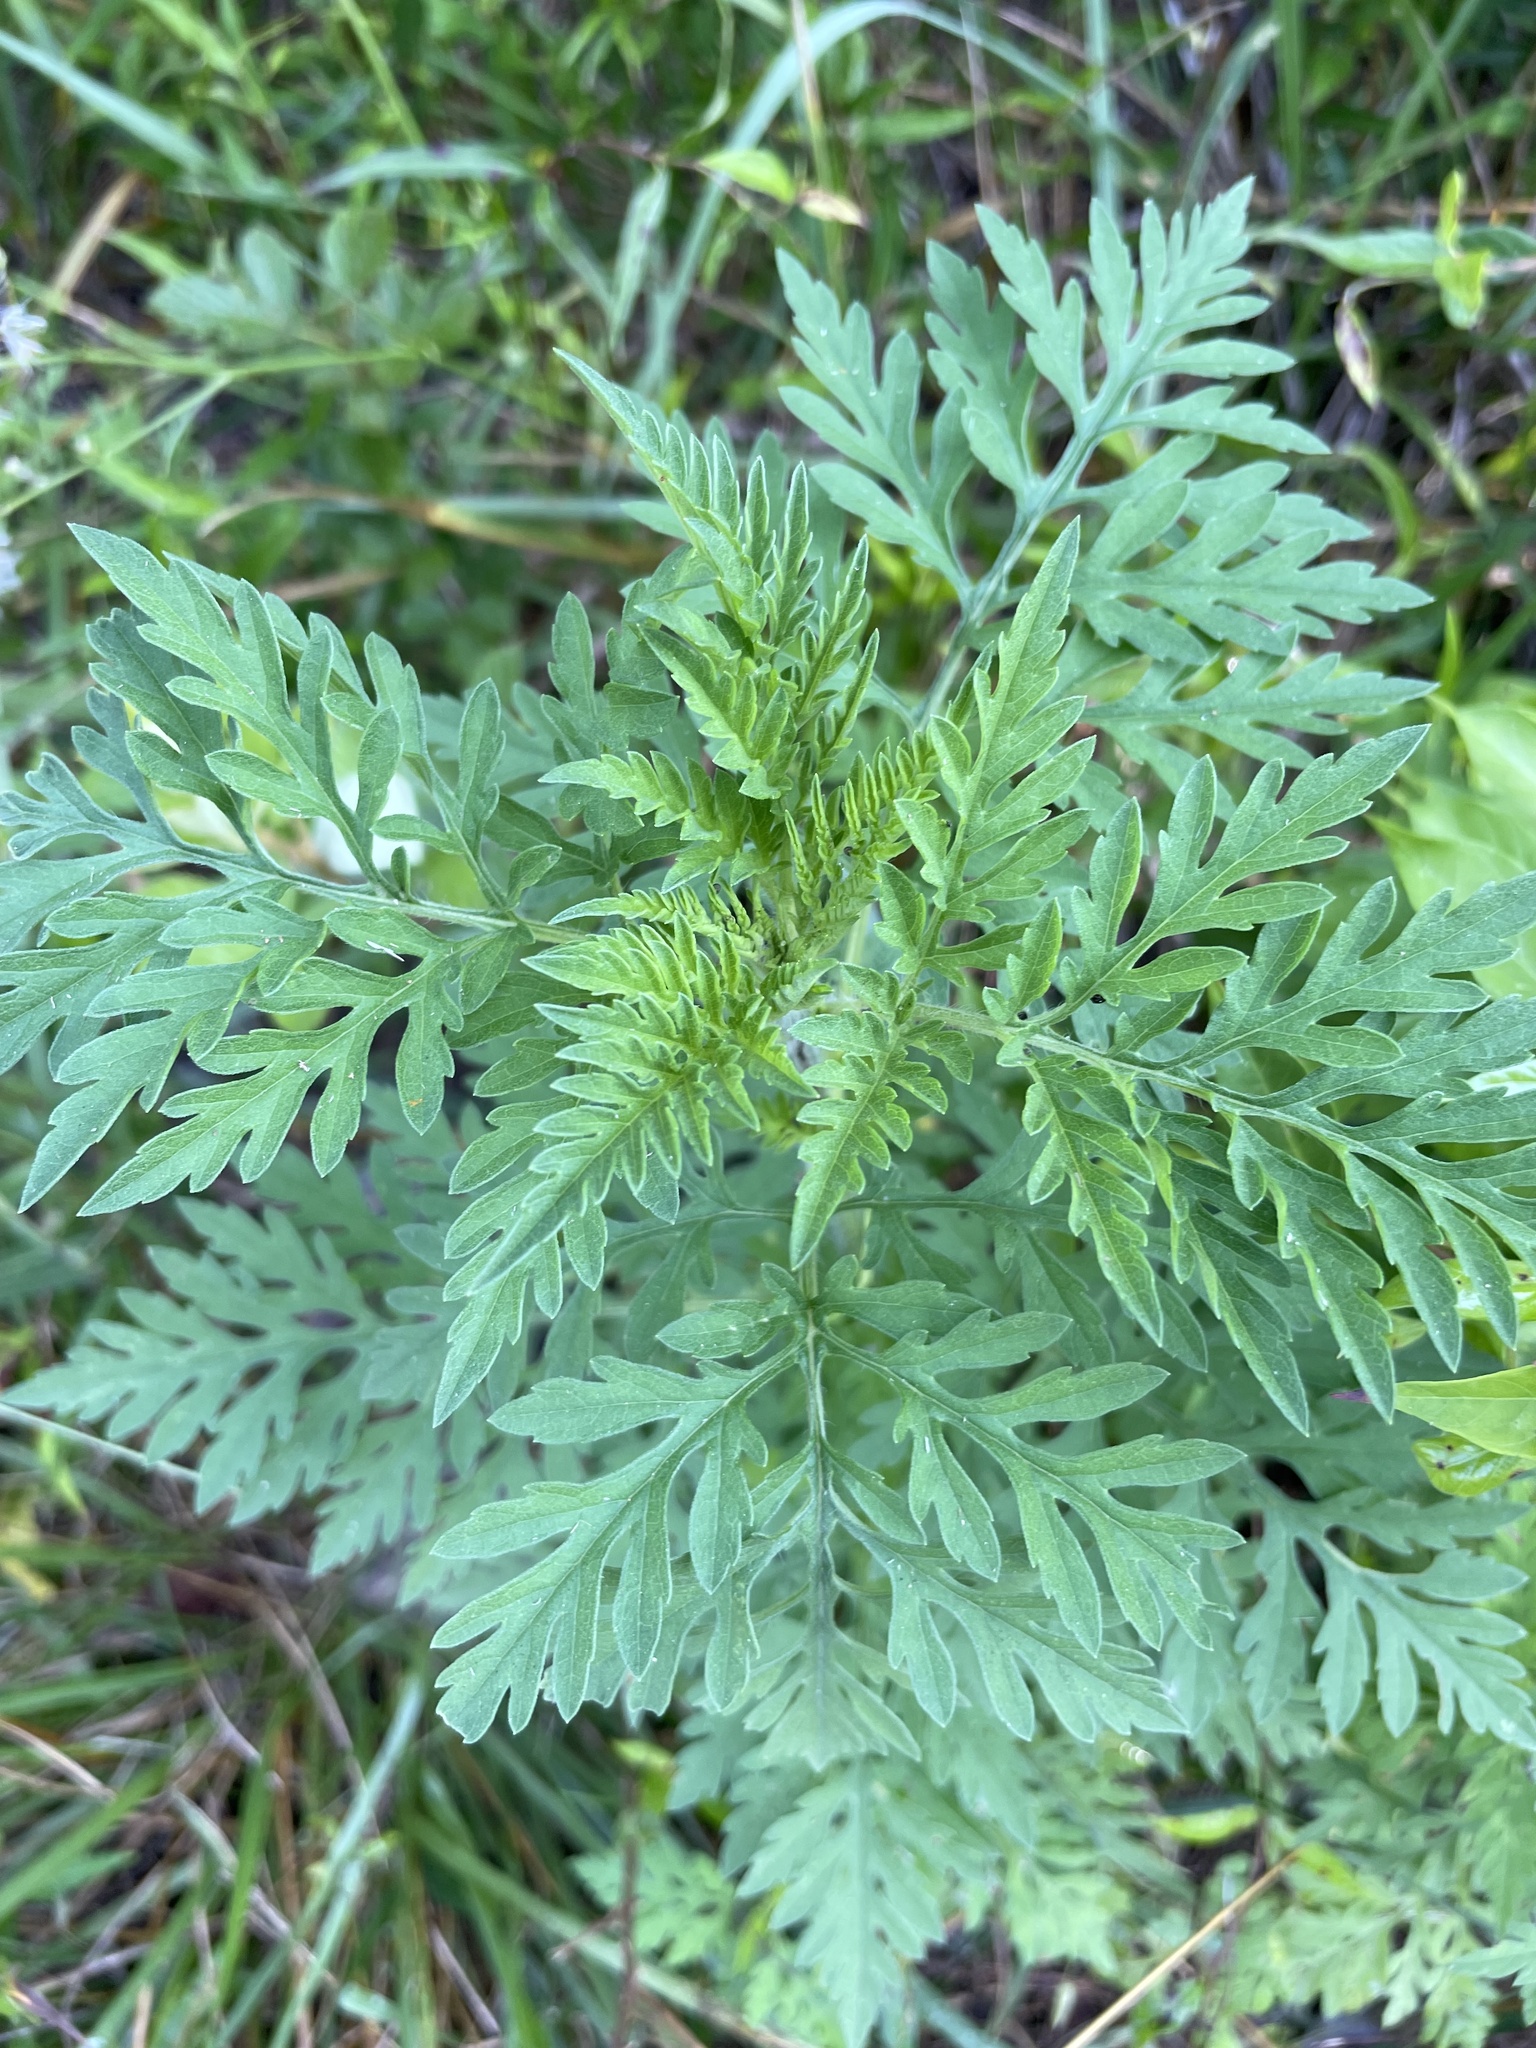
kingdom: Plantae
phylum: Tracheophyta
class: Magnoliopsida
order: Asterales
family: Asteraceae
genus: Ambrosia
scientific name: Ambrosia artemisiifolia
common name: Annual ragweed
